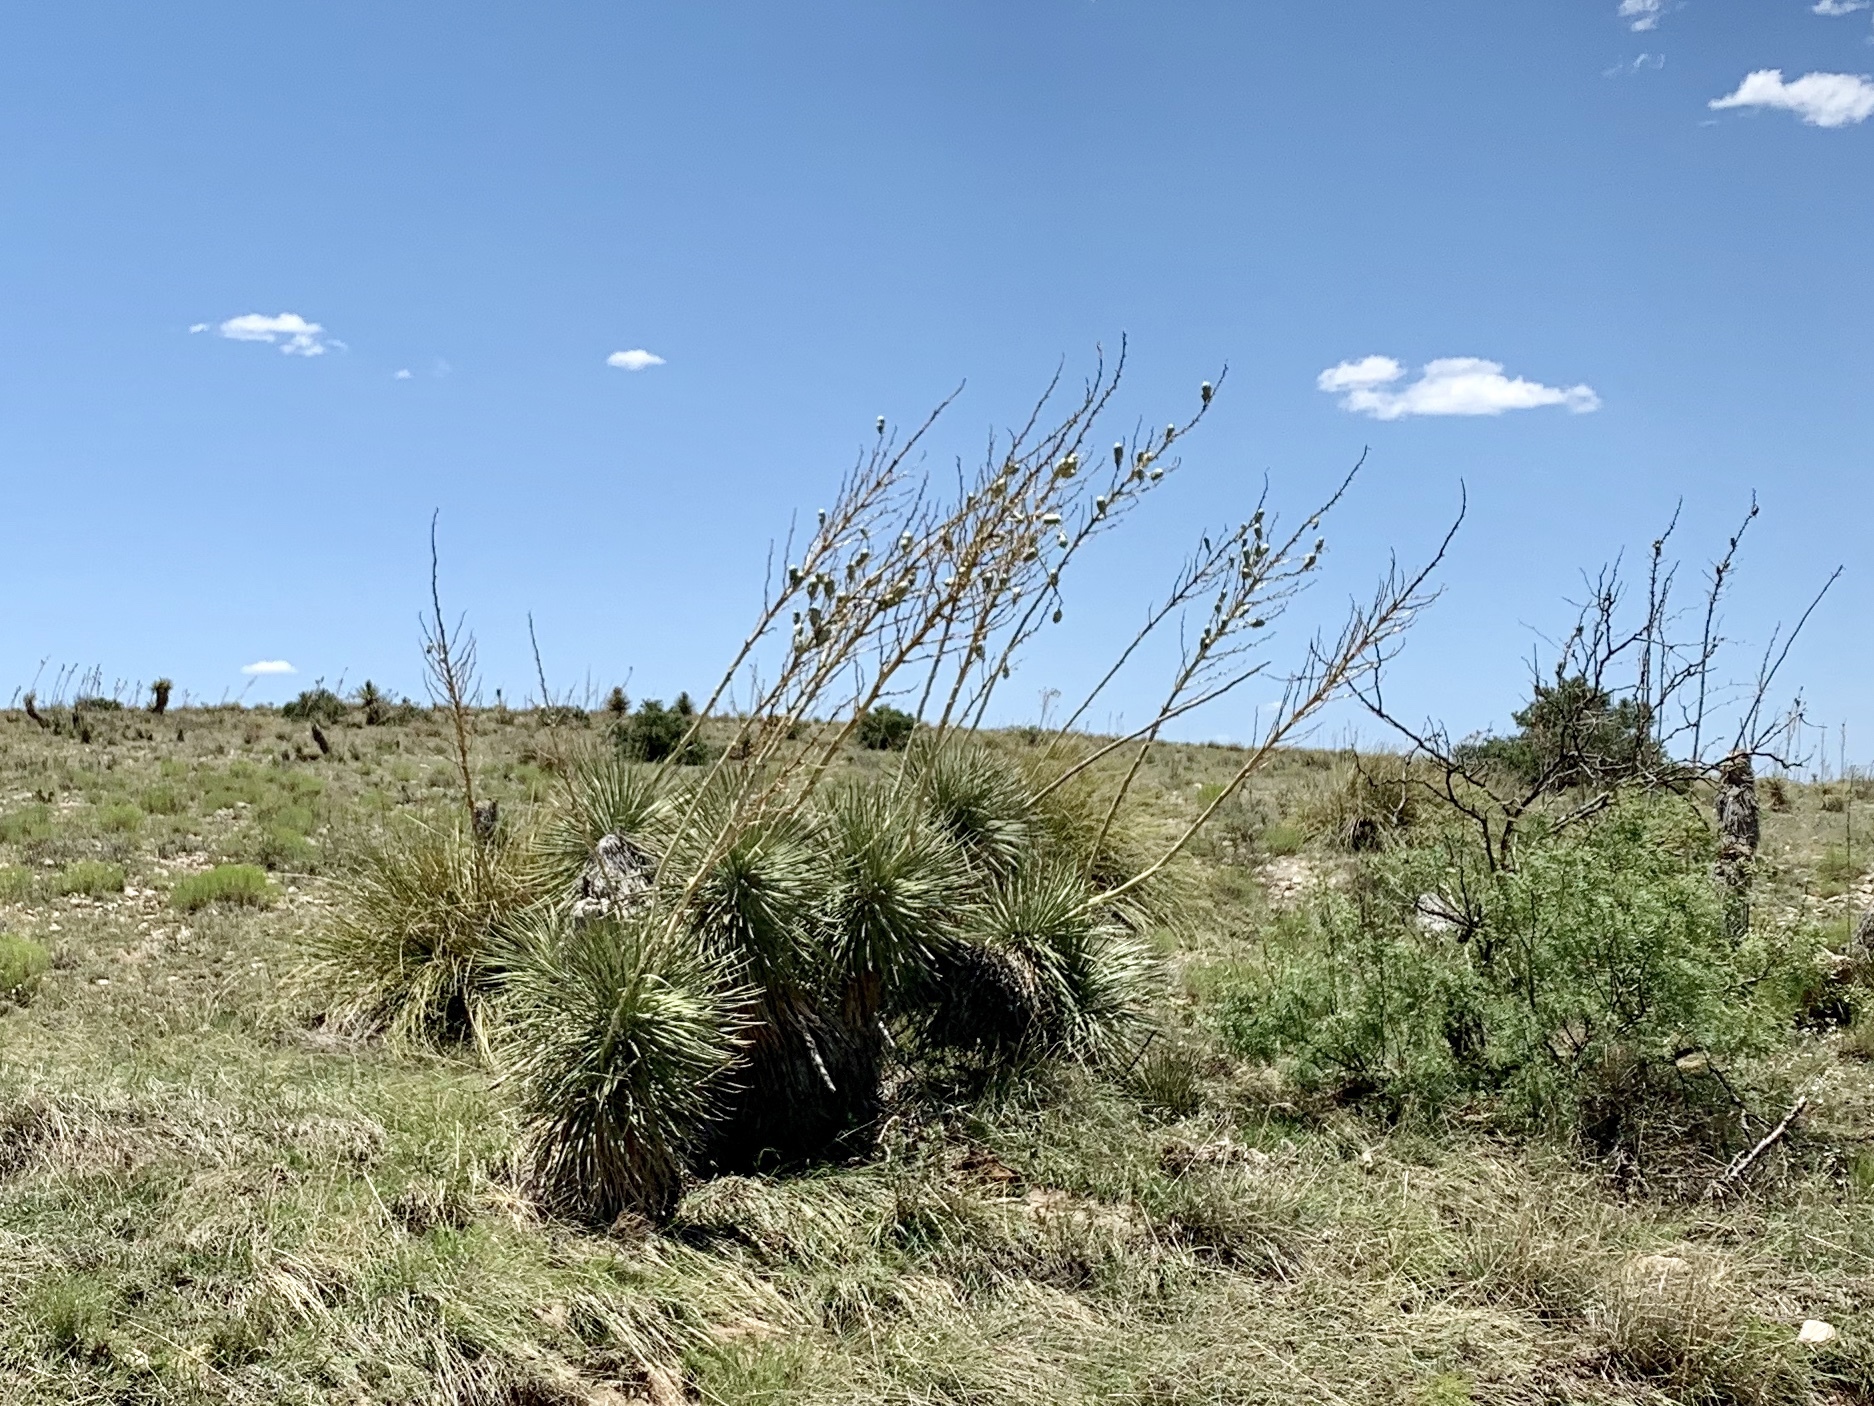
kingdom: Plantae
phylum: Tracheophyta
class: Liliopsida
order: Asparagales
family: Asparagaceae
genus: Yucca
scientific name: Yucca elata
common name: Palmella
